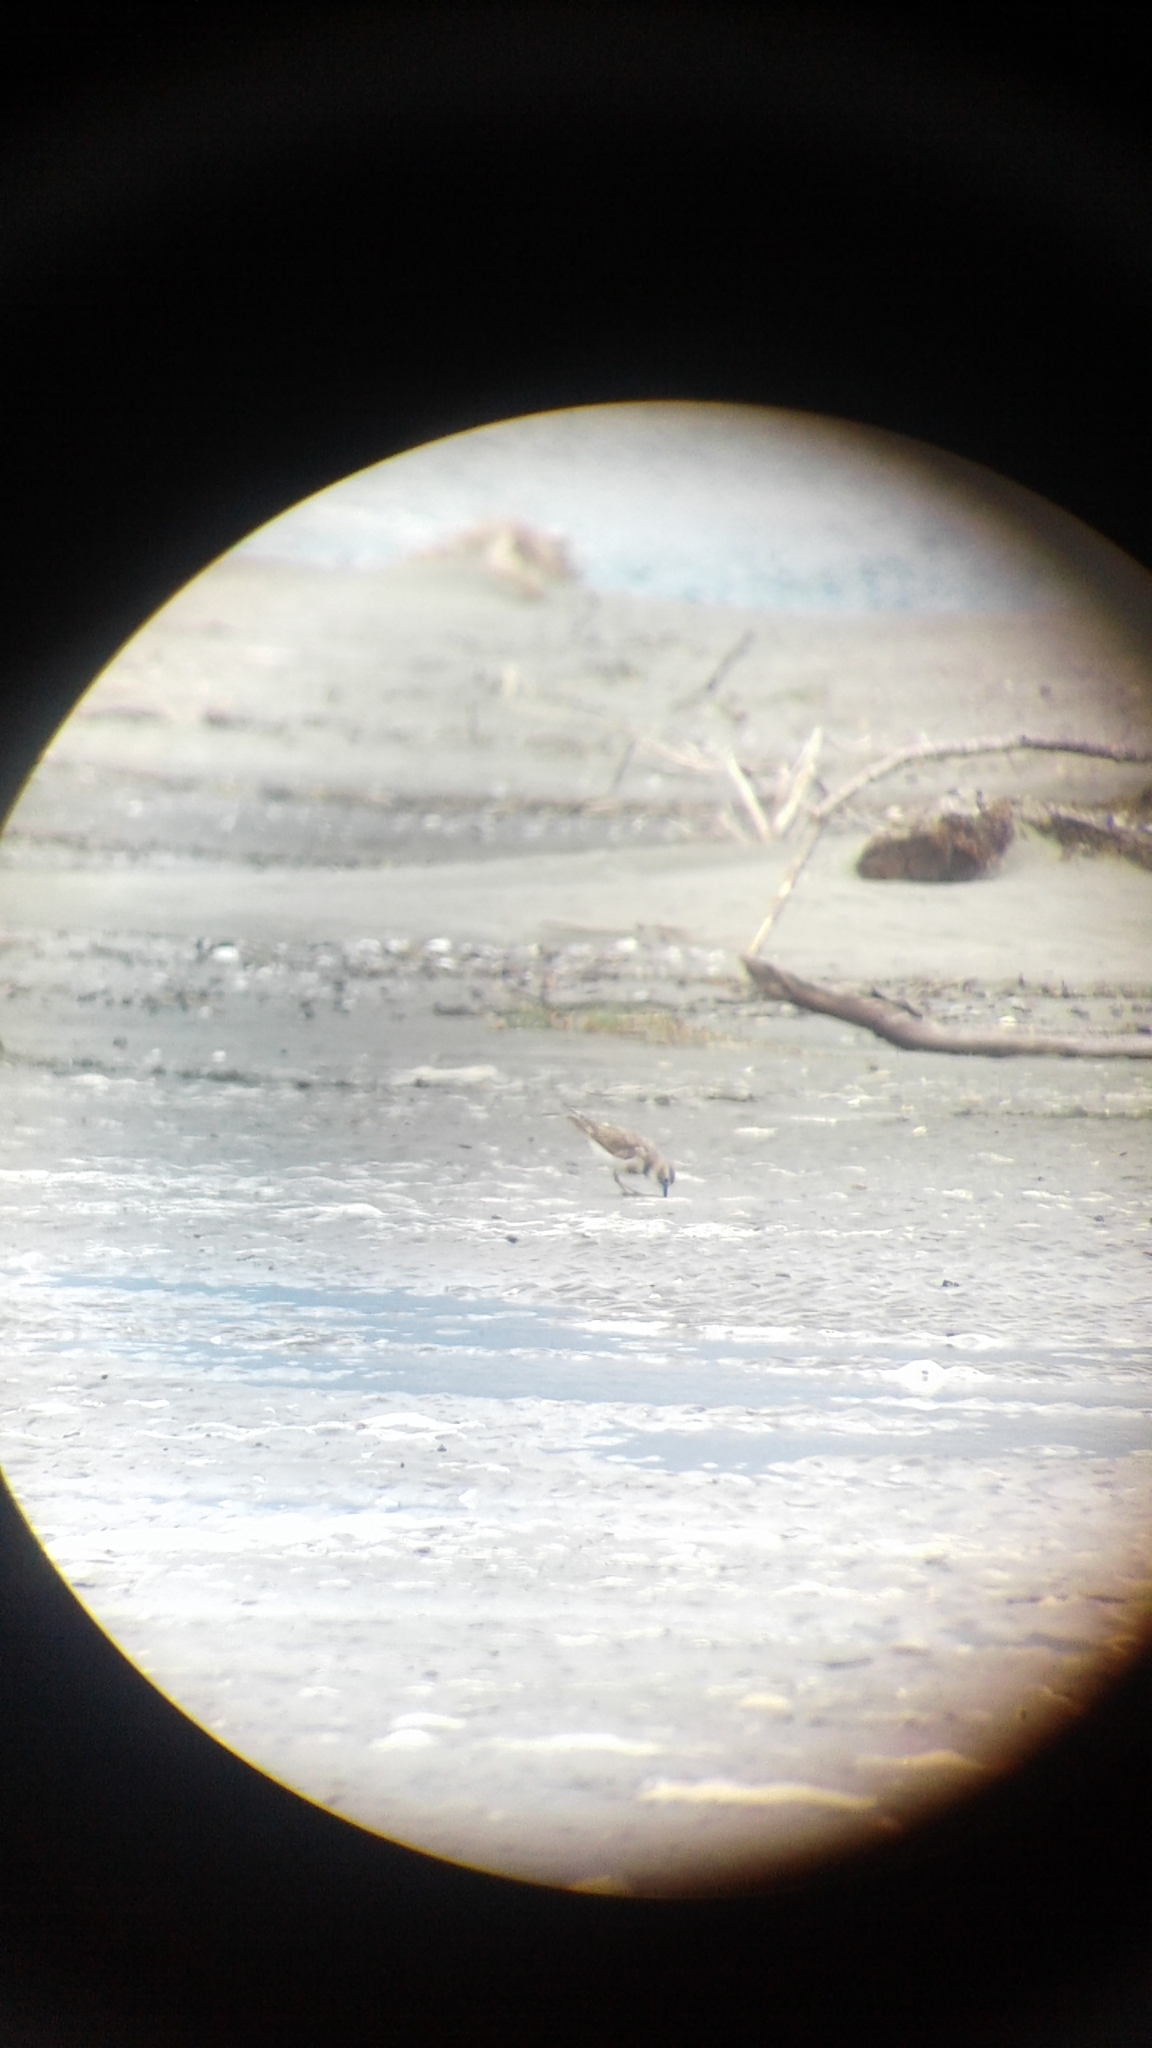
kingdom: Animalia
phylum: Chordata
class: Aves
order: Charadriiformes
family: Charadriidae
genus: Anarhynchus
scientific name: Anarhynchus
